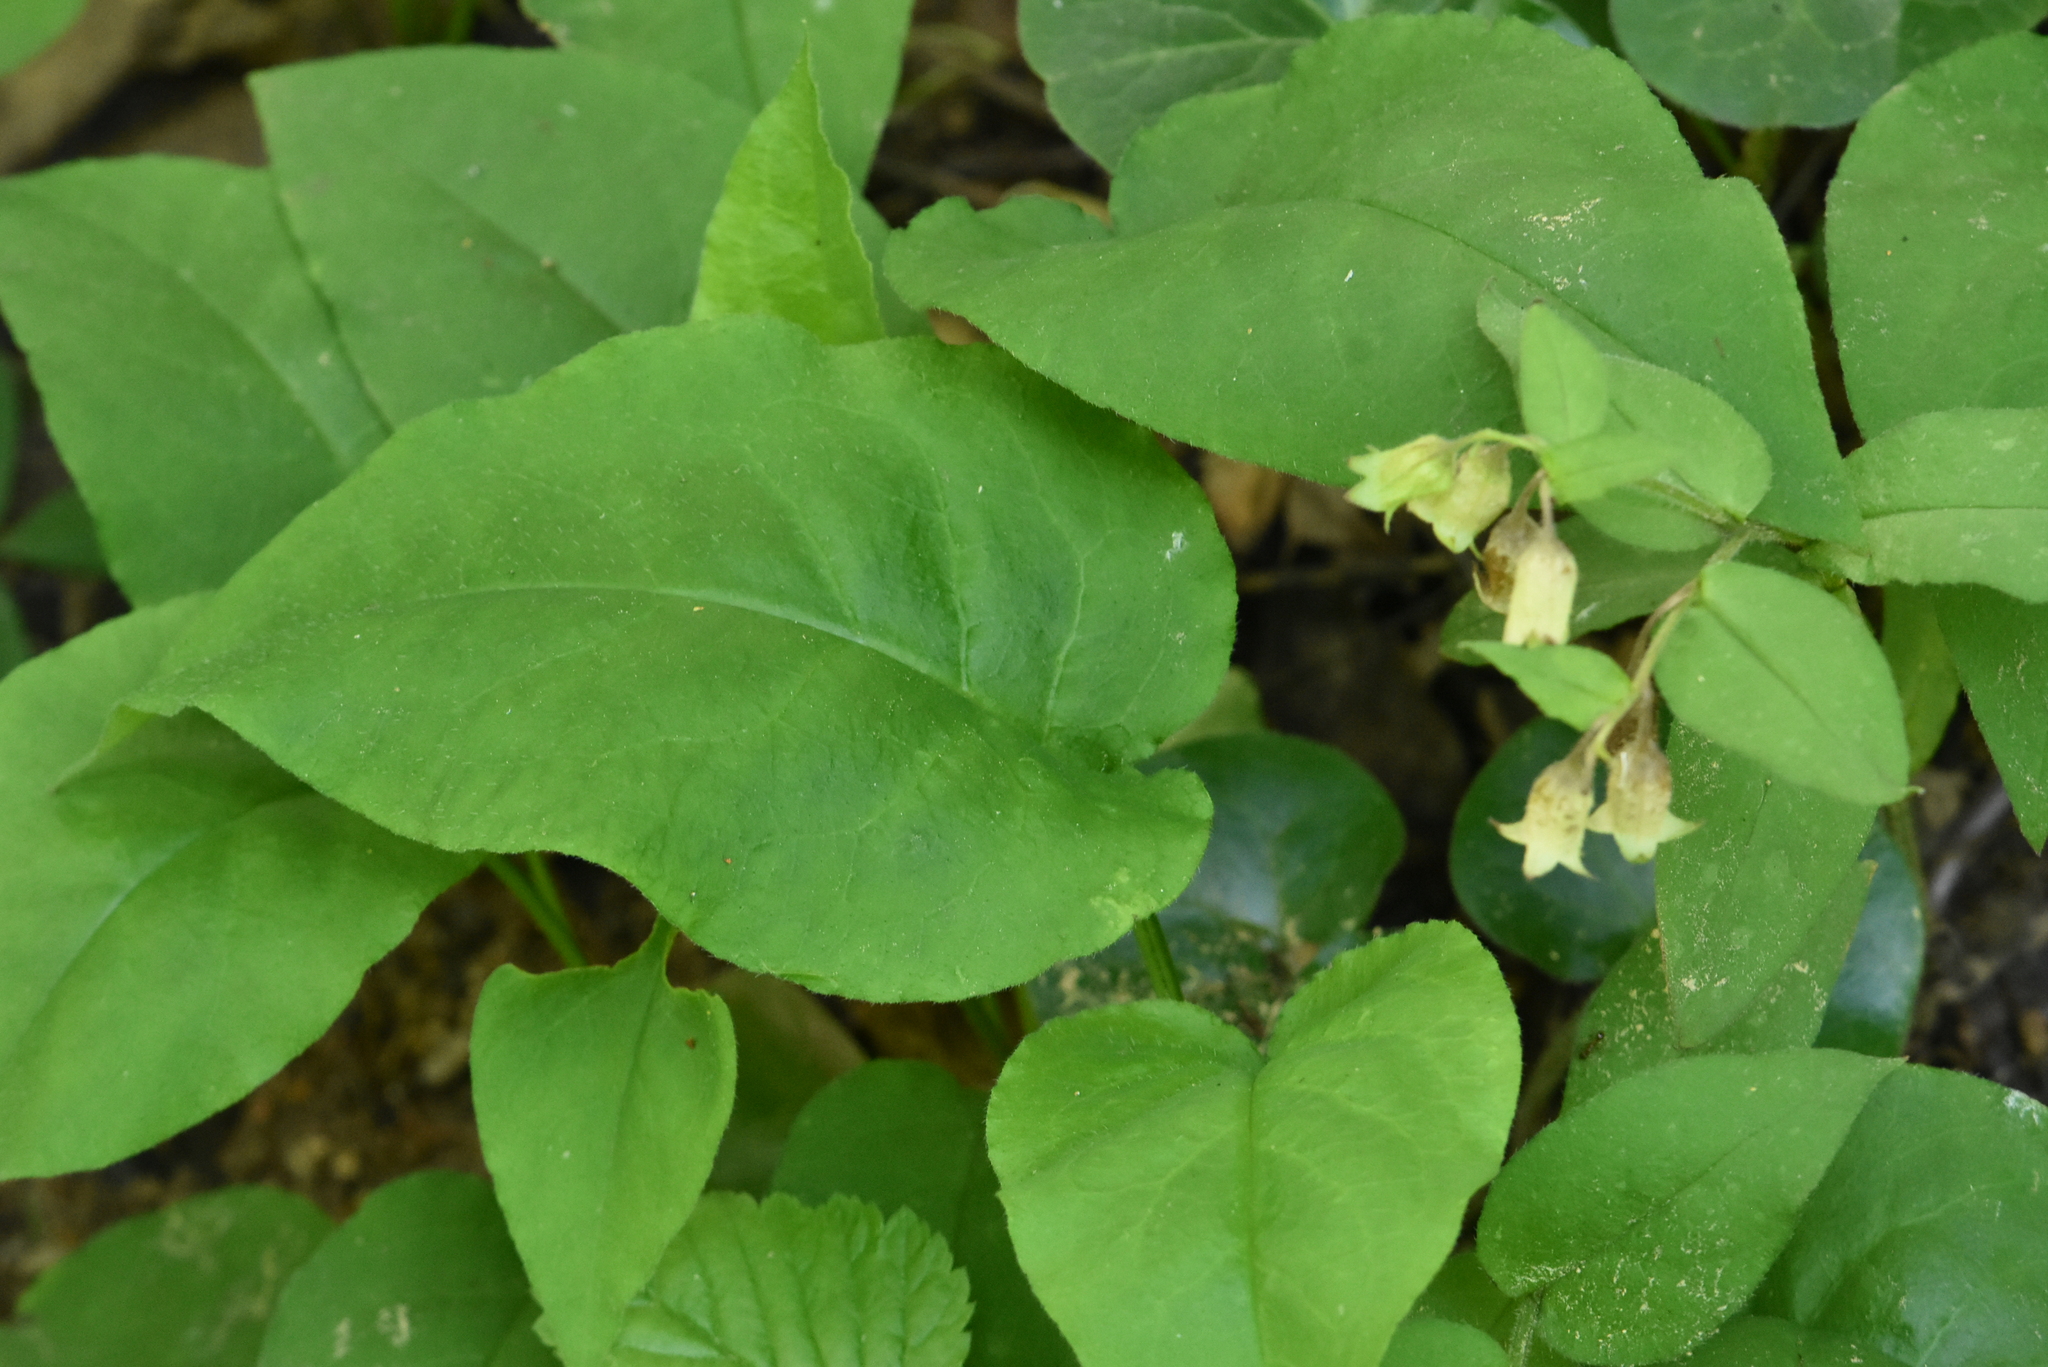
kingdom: Plantae
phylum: Tracheophyta
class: Magnoliopsida
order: Boraginales
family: Boraginaceae
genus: Pulmonaria
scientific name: Pulmonaria obscura
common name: Suffolk lungwort
